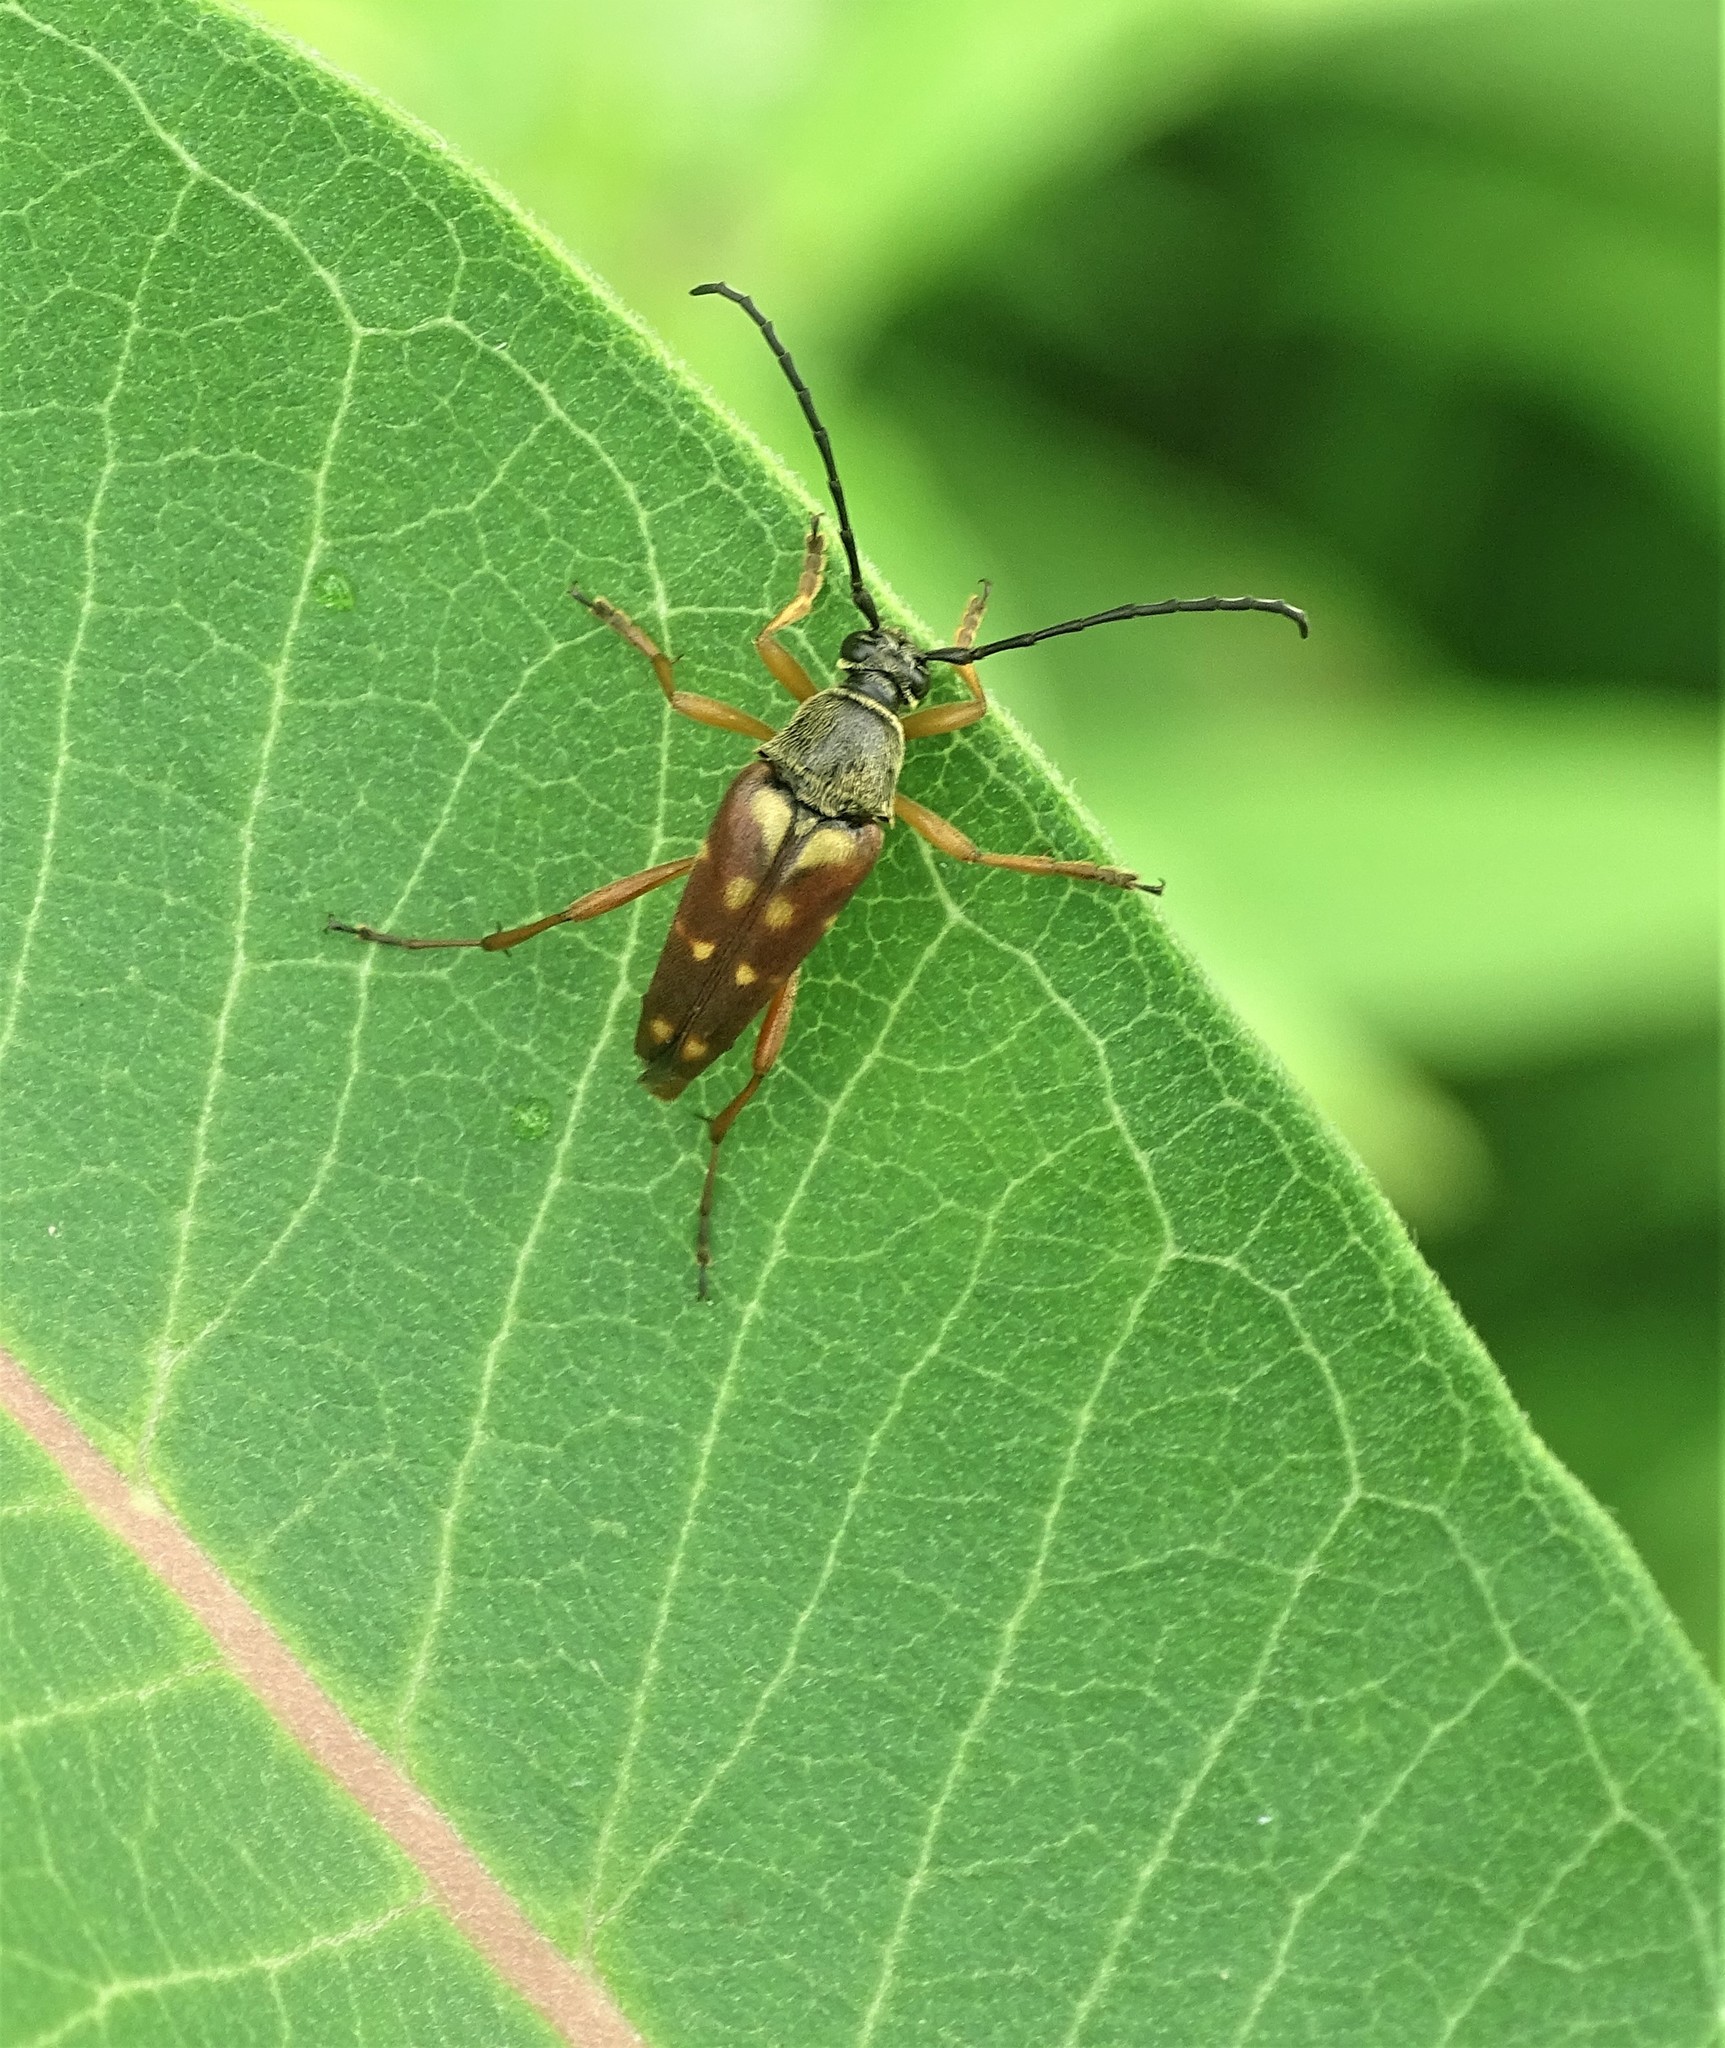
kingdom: Animalia
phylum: Arthropoda
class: Insecta
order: Coleoptera
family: Cerambycidae
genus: Typocerus
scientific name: Typocerus velutinus
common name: Banded longhorn beetle
